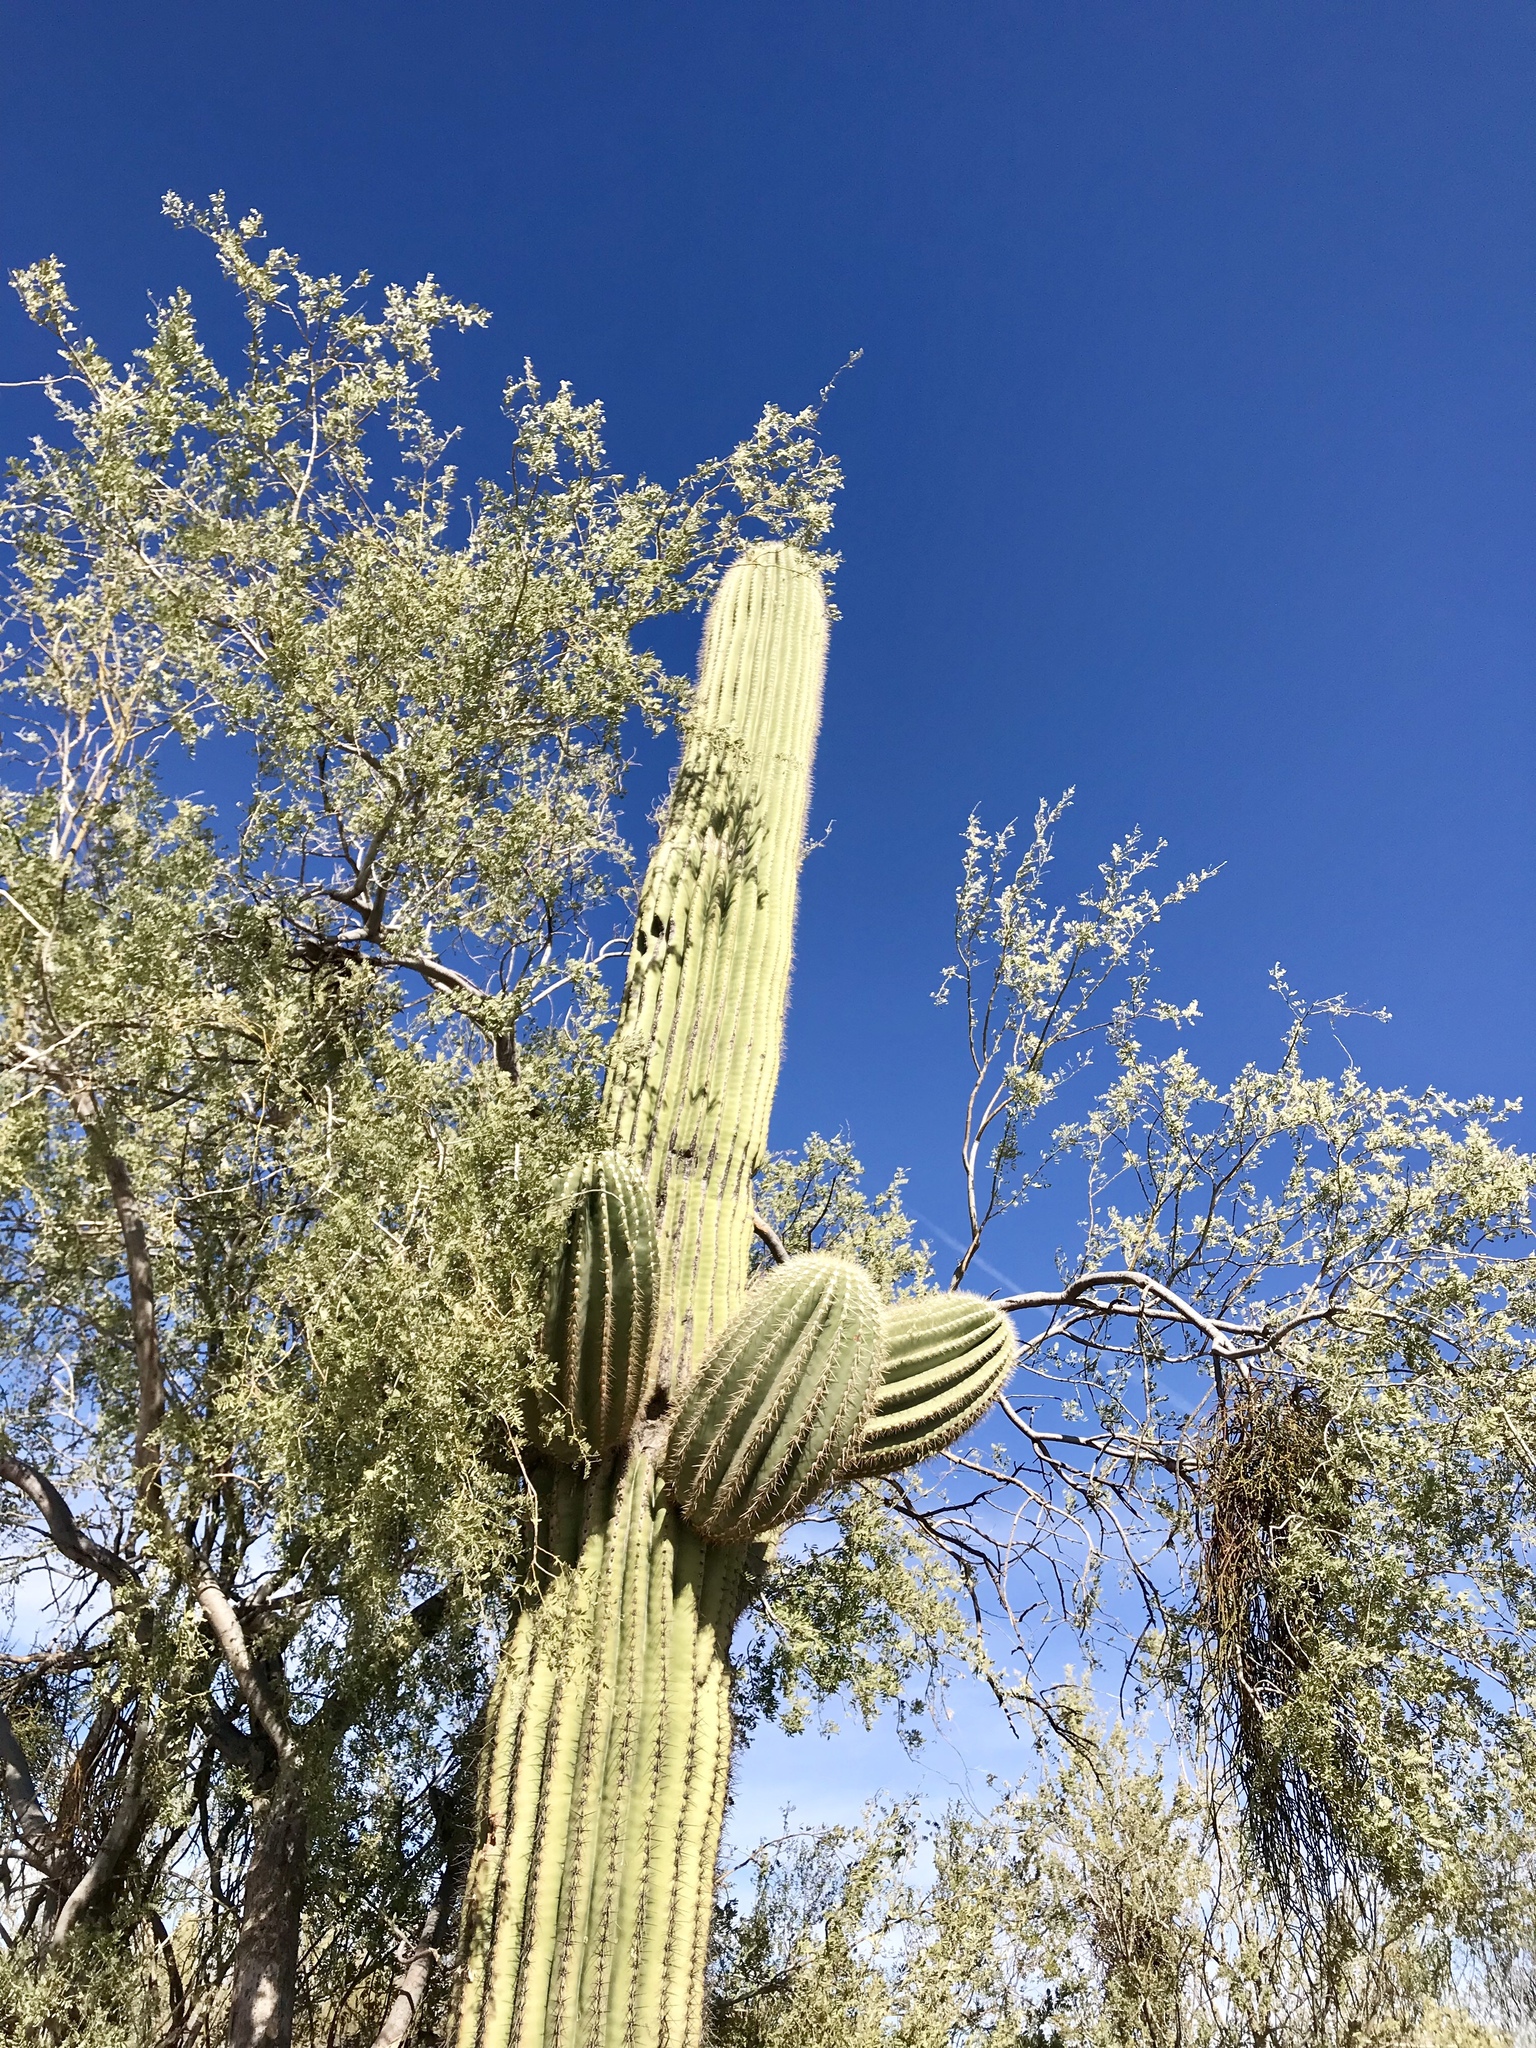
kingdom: Plantae
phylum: Tracheophyta
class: Magnoliopsida
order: Caryophyllales
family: Cactaceae
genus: Carnegiea
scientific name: Carnegiea gigantea
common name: Saguaro
